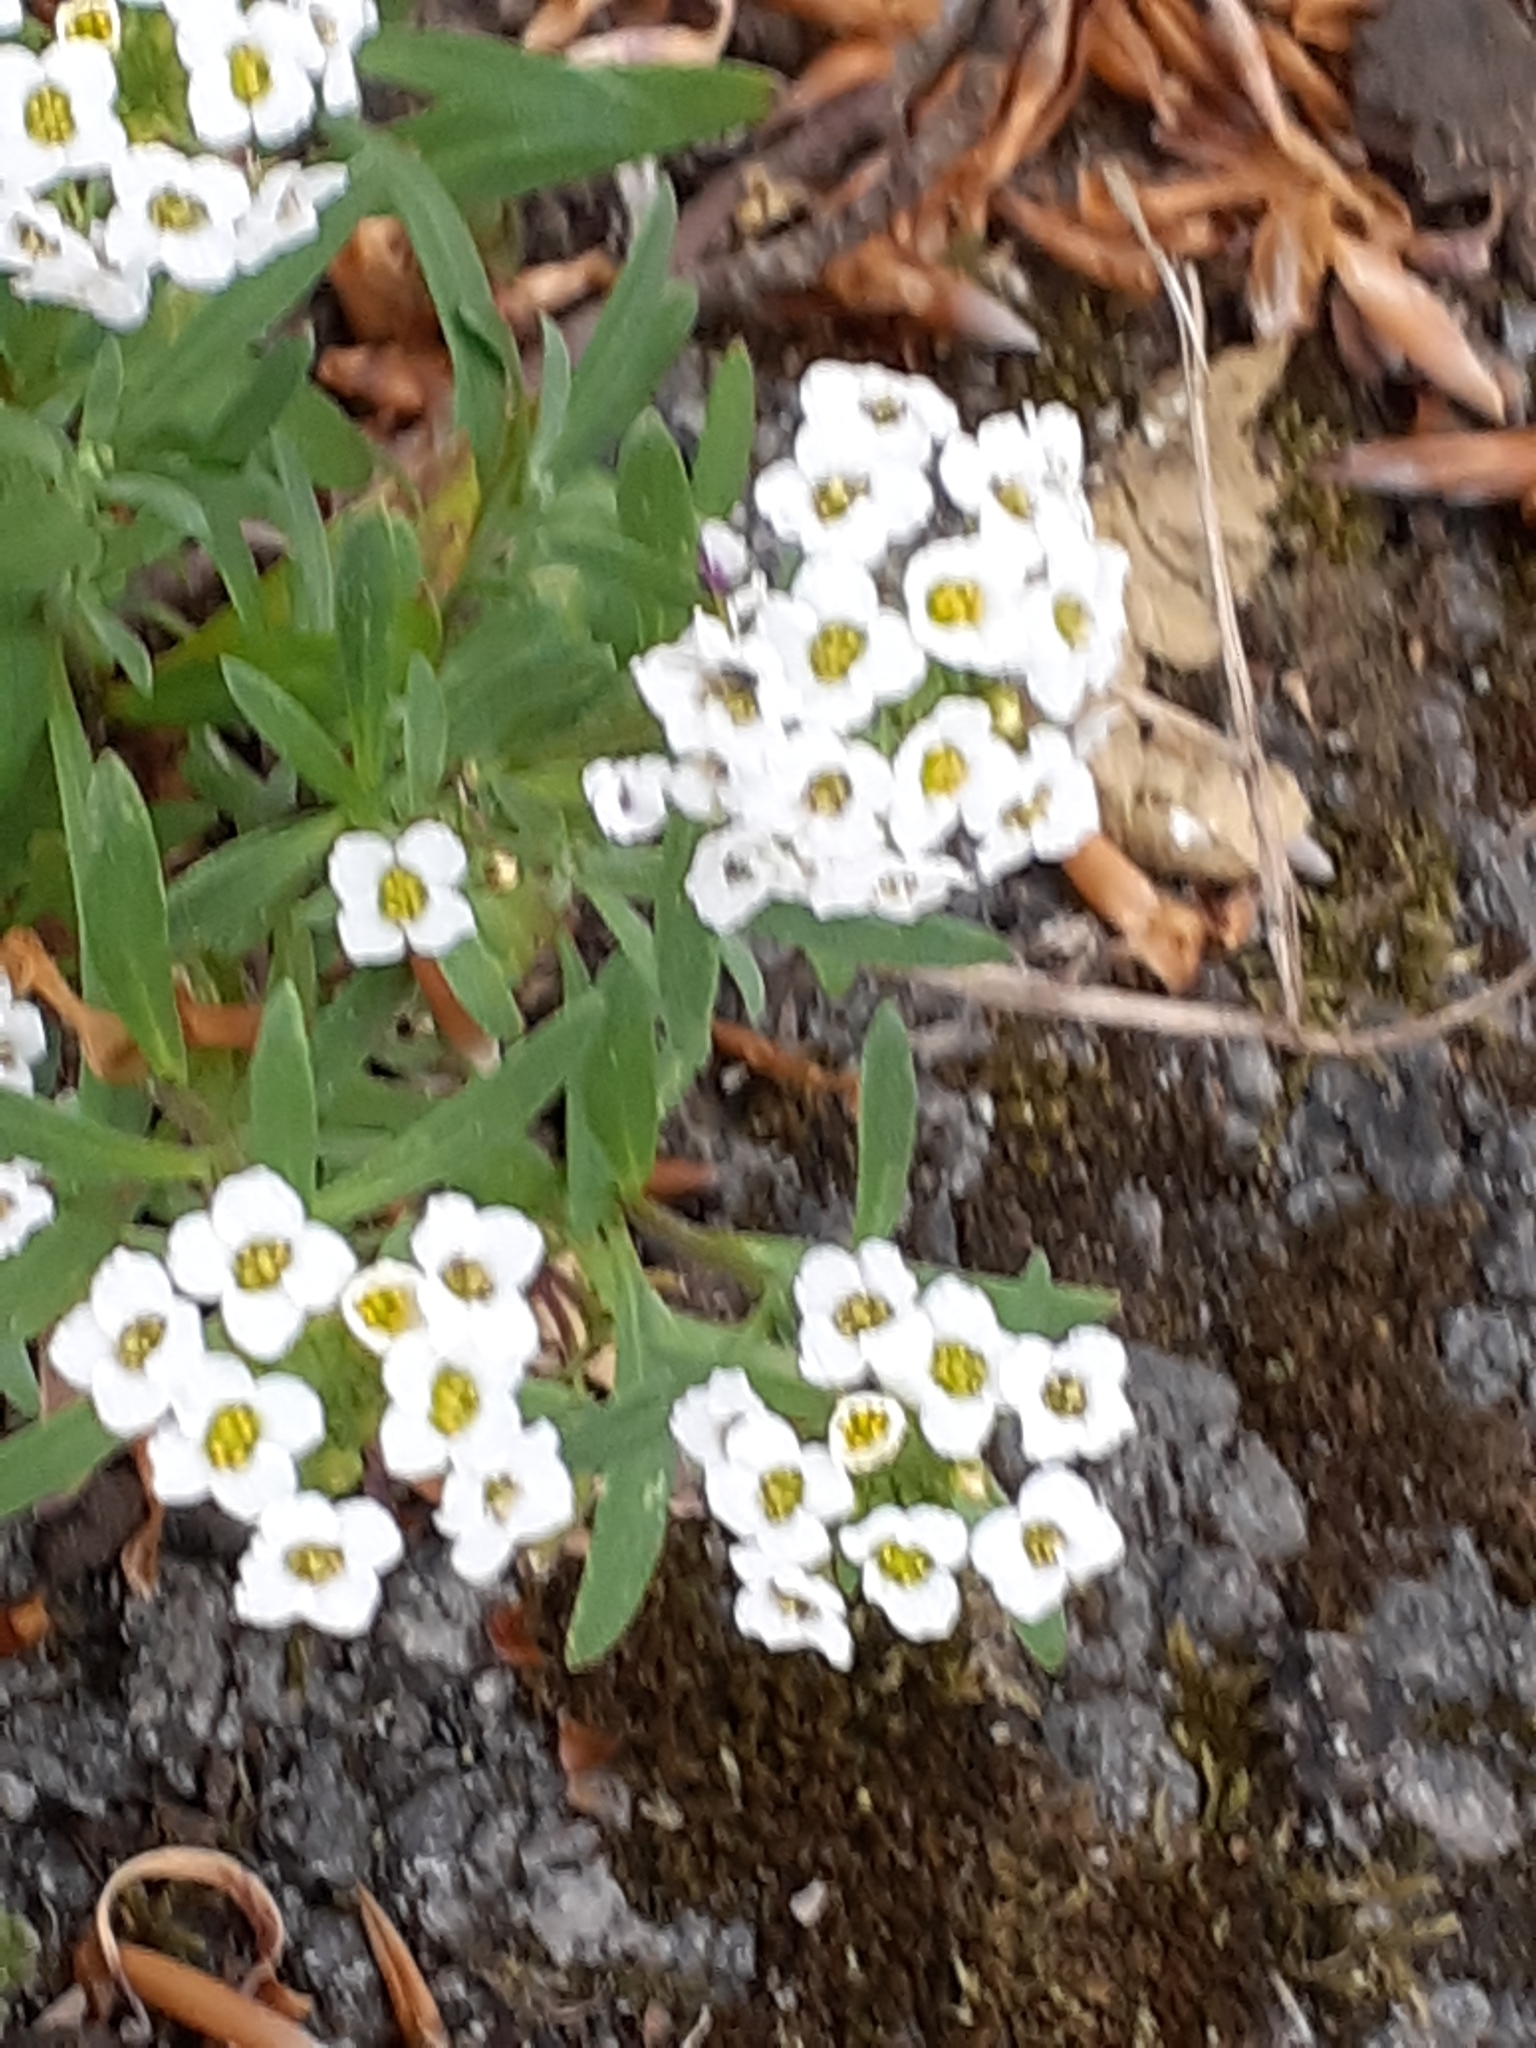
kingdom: Plantae
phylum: Tracheophyta
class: Magnoliopsida
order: Brassicales
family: Brassicaceae
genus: Lobularia
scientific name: Lobularia maritima
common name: Sweet alison
